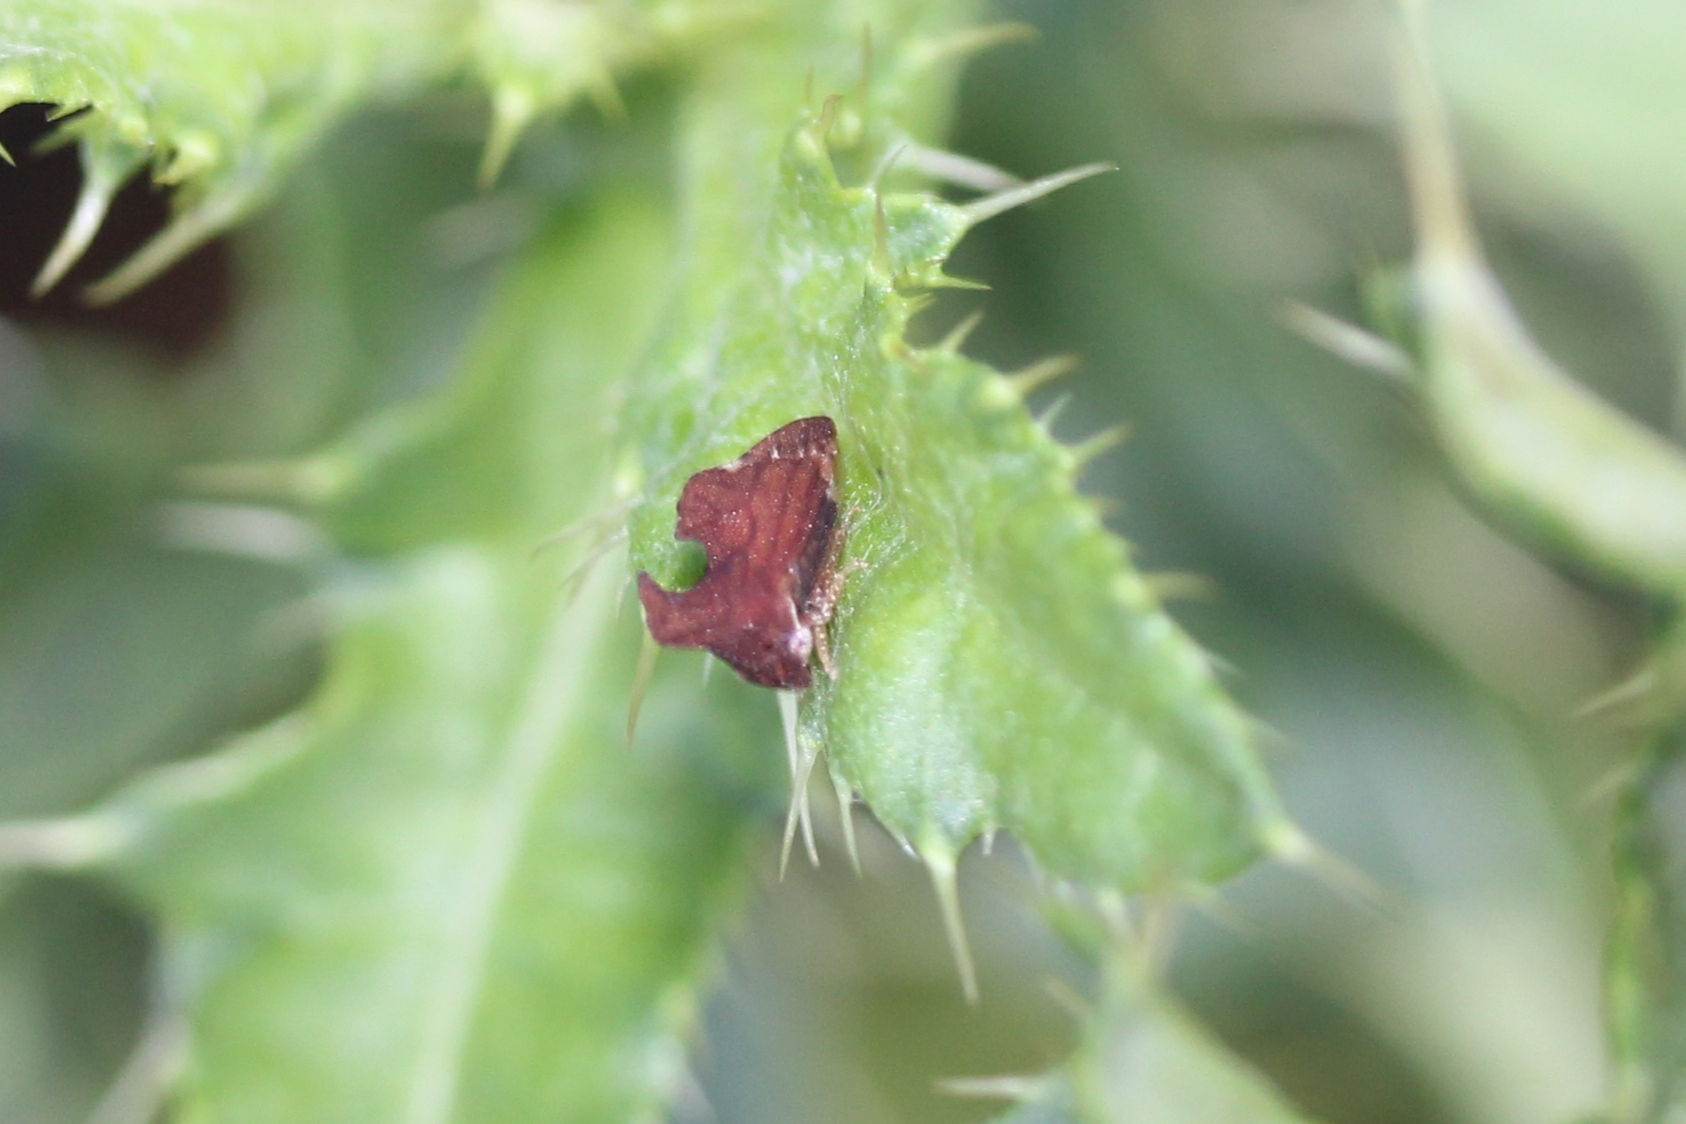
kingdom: Animalia
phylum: Arthropoda
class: Insecta
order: Hemiptera
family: Membracidae
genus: Entylia
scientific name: Entylia carinata
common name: Keeled treehopper
